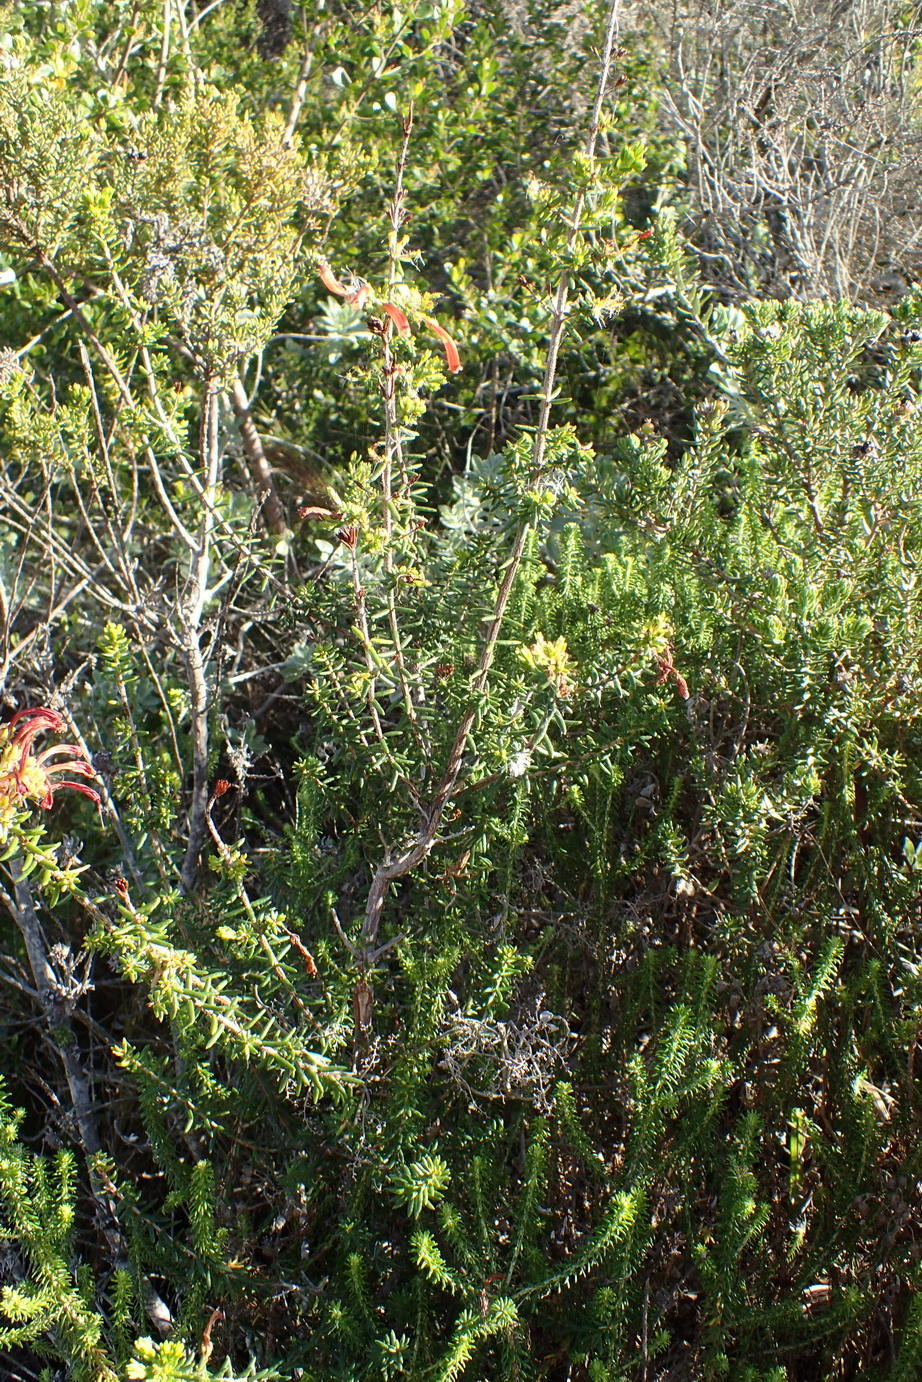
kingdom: Plantae
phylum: Tracheophyta
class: Magnoliopsida
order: Ericales
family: Ericaceae
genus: Erica
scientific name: Erica glandulosa
